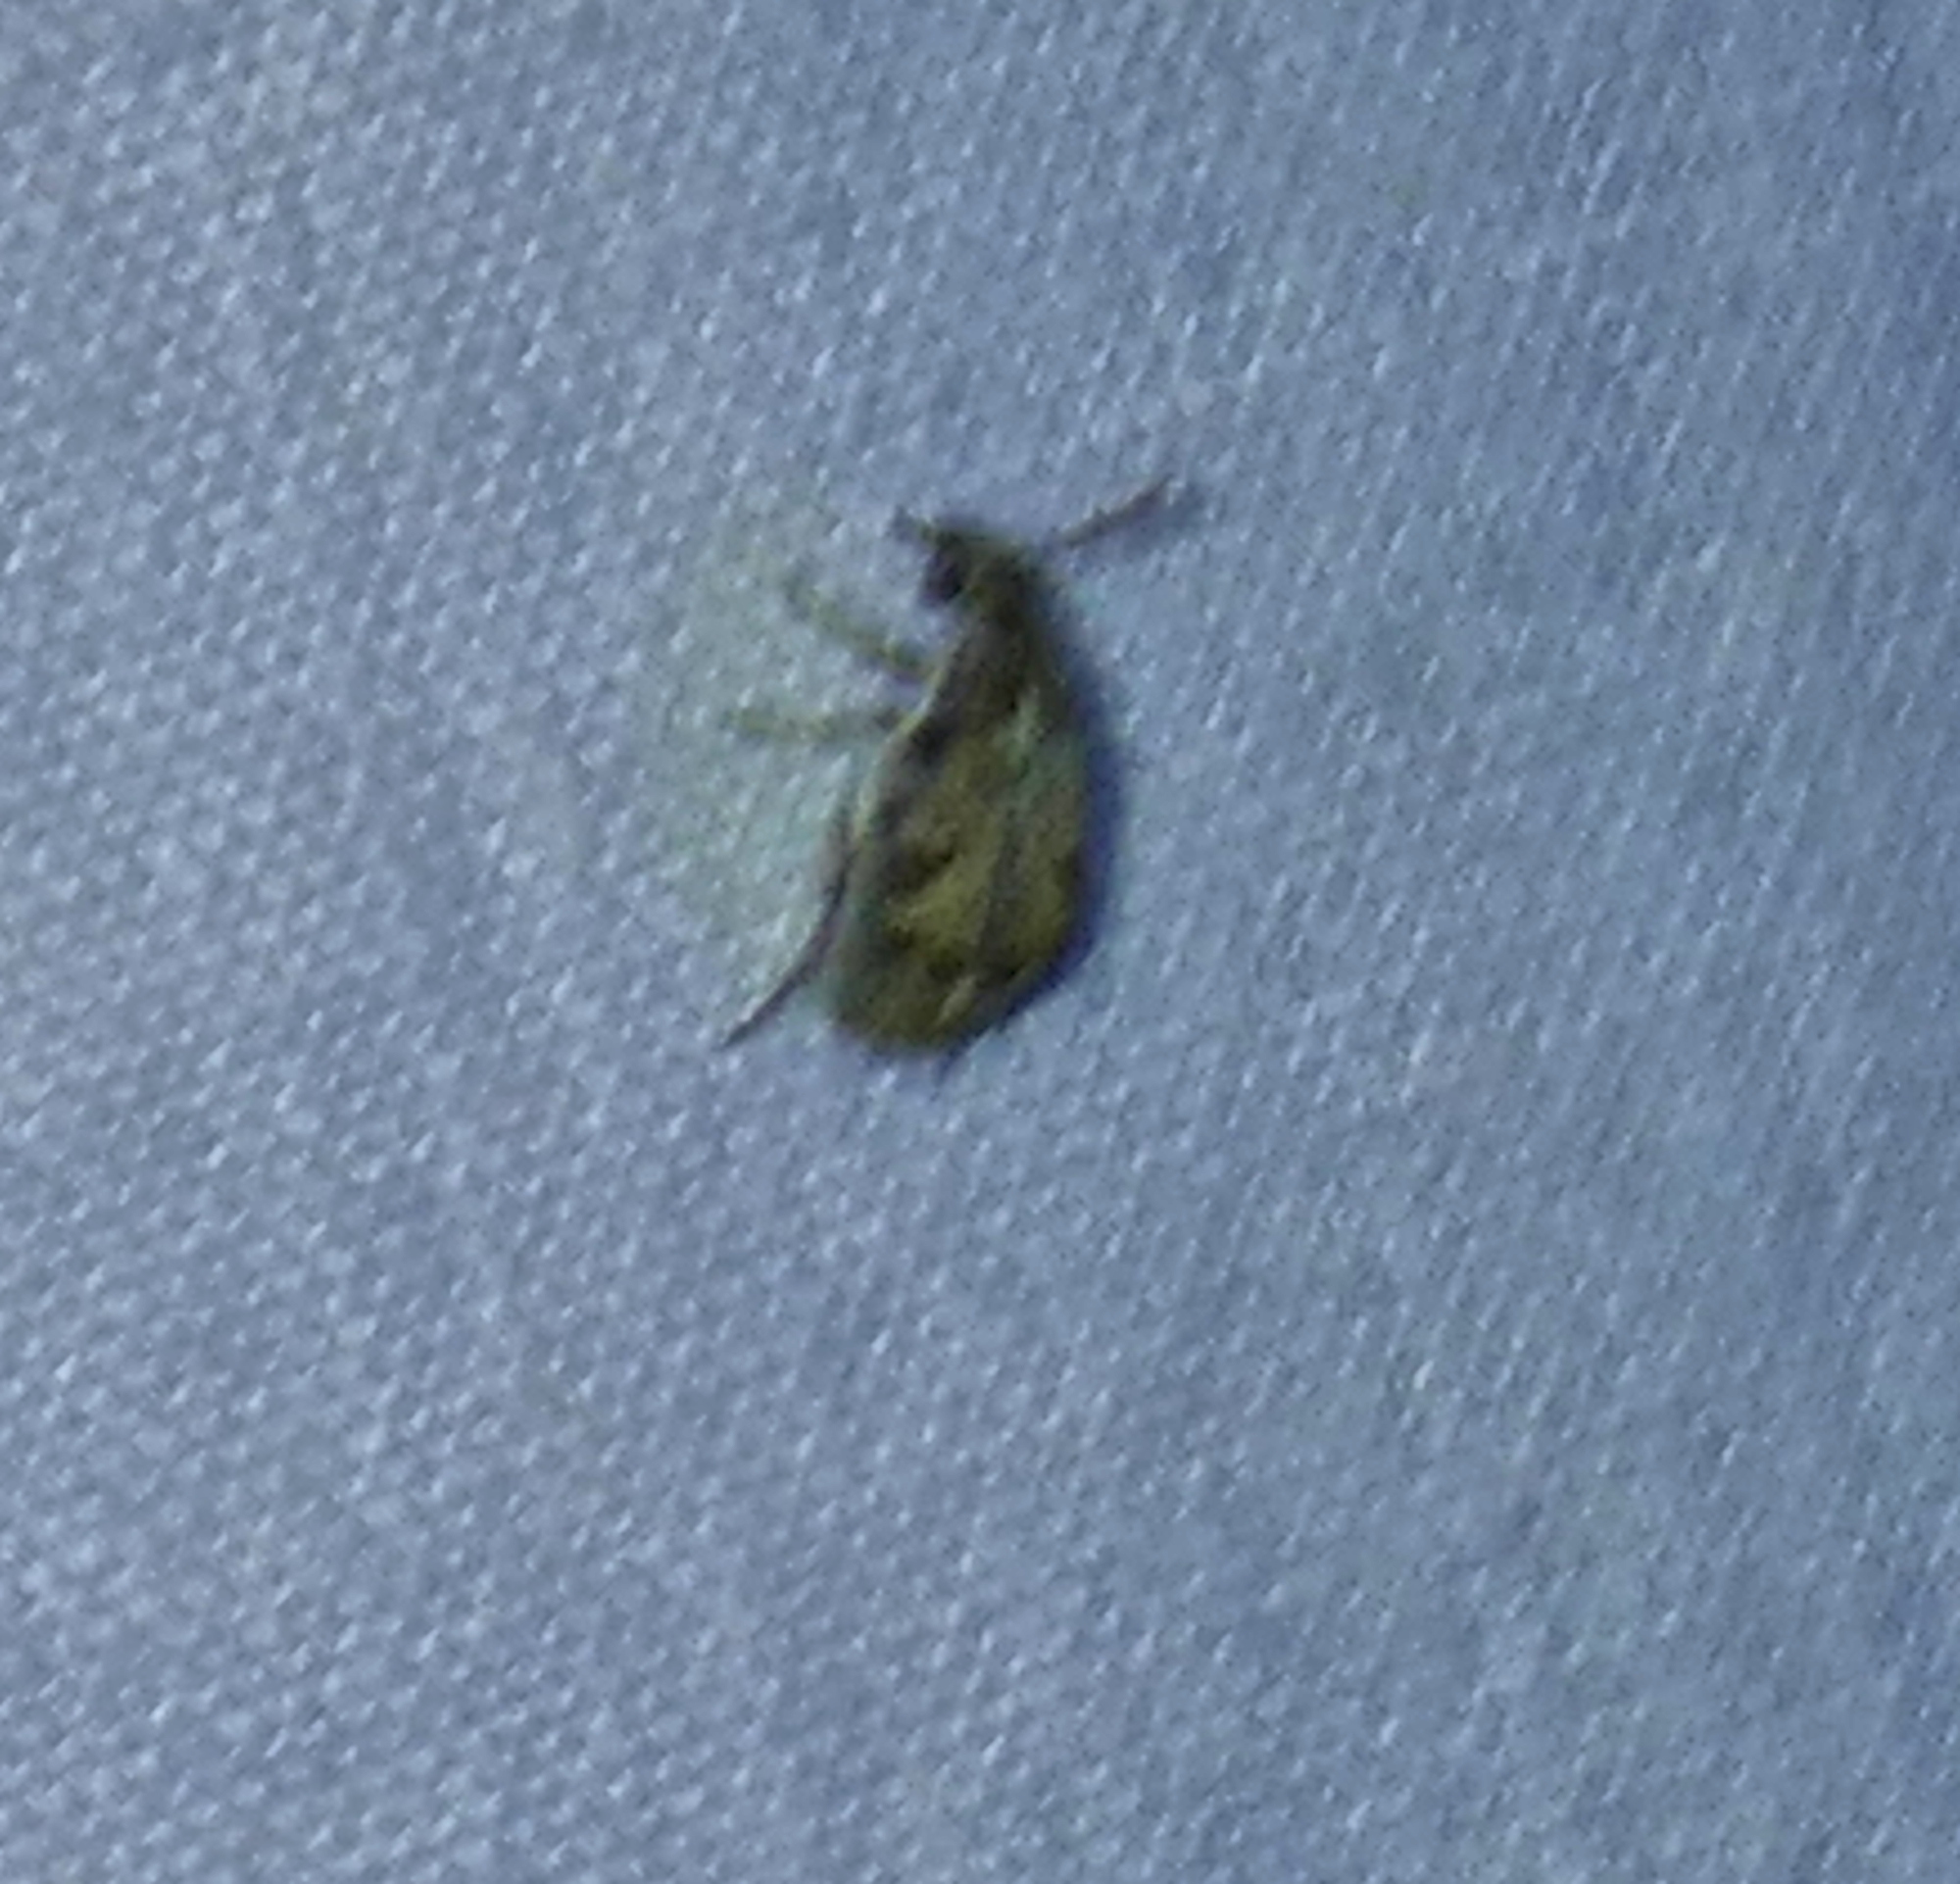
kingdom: Animalia
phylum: Arthropoda
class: Insecta
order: Coleoptera
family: Chrysomelidae
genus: Algarobius
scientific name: Algarobius prosopis
